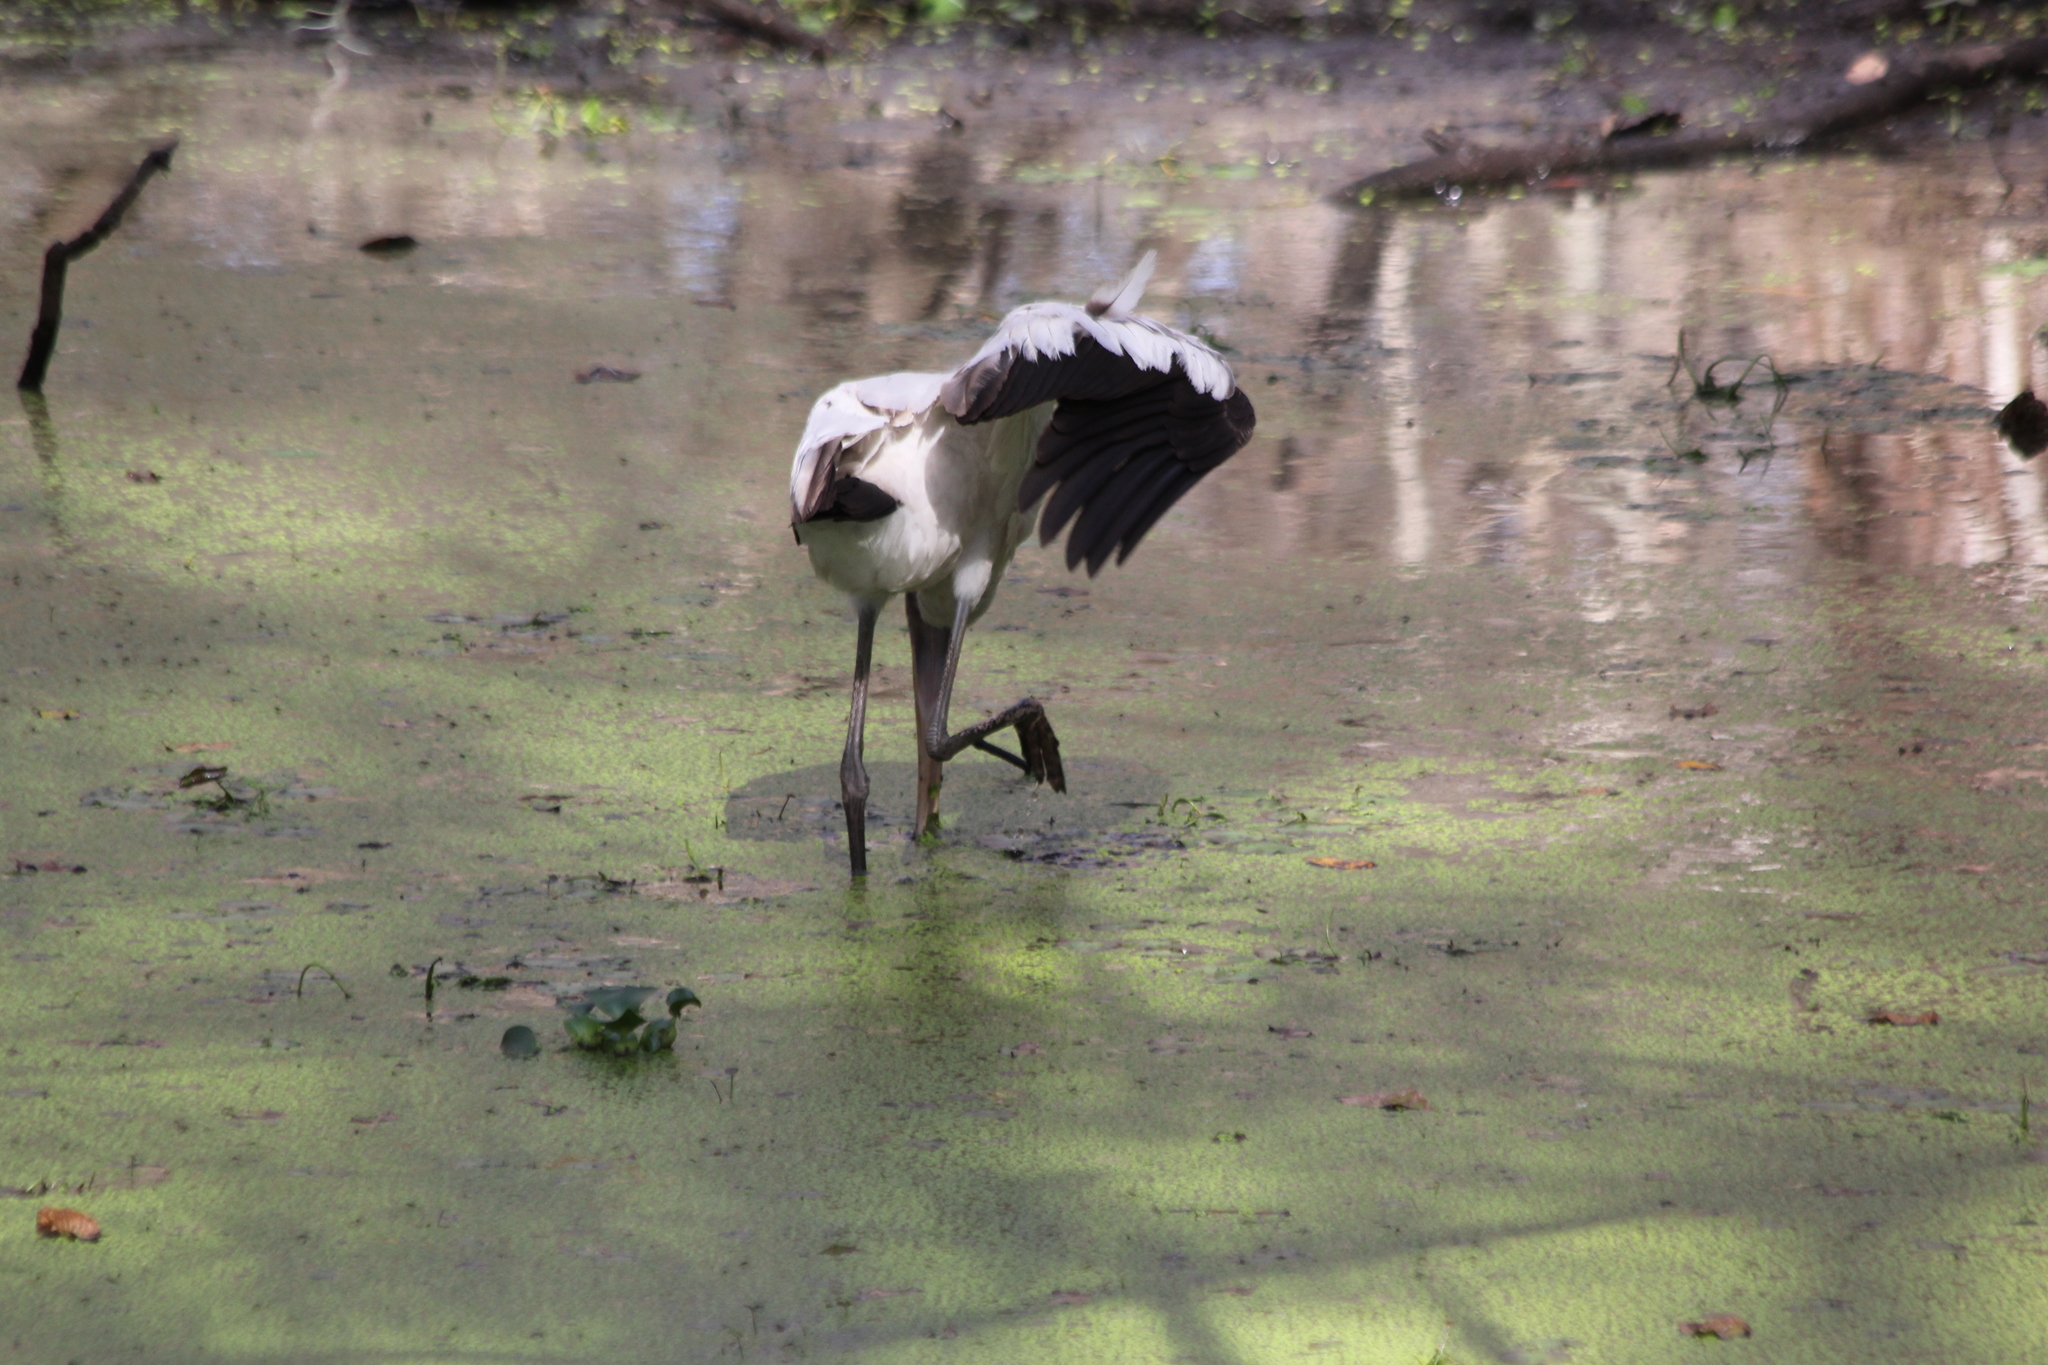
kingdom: Animalia
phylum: Chordata
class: Aves
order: Ciconiiformes
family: Ciconiidae
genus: Mycteria
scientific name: Mycteria americana
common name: Wood stork
